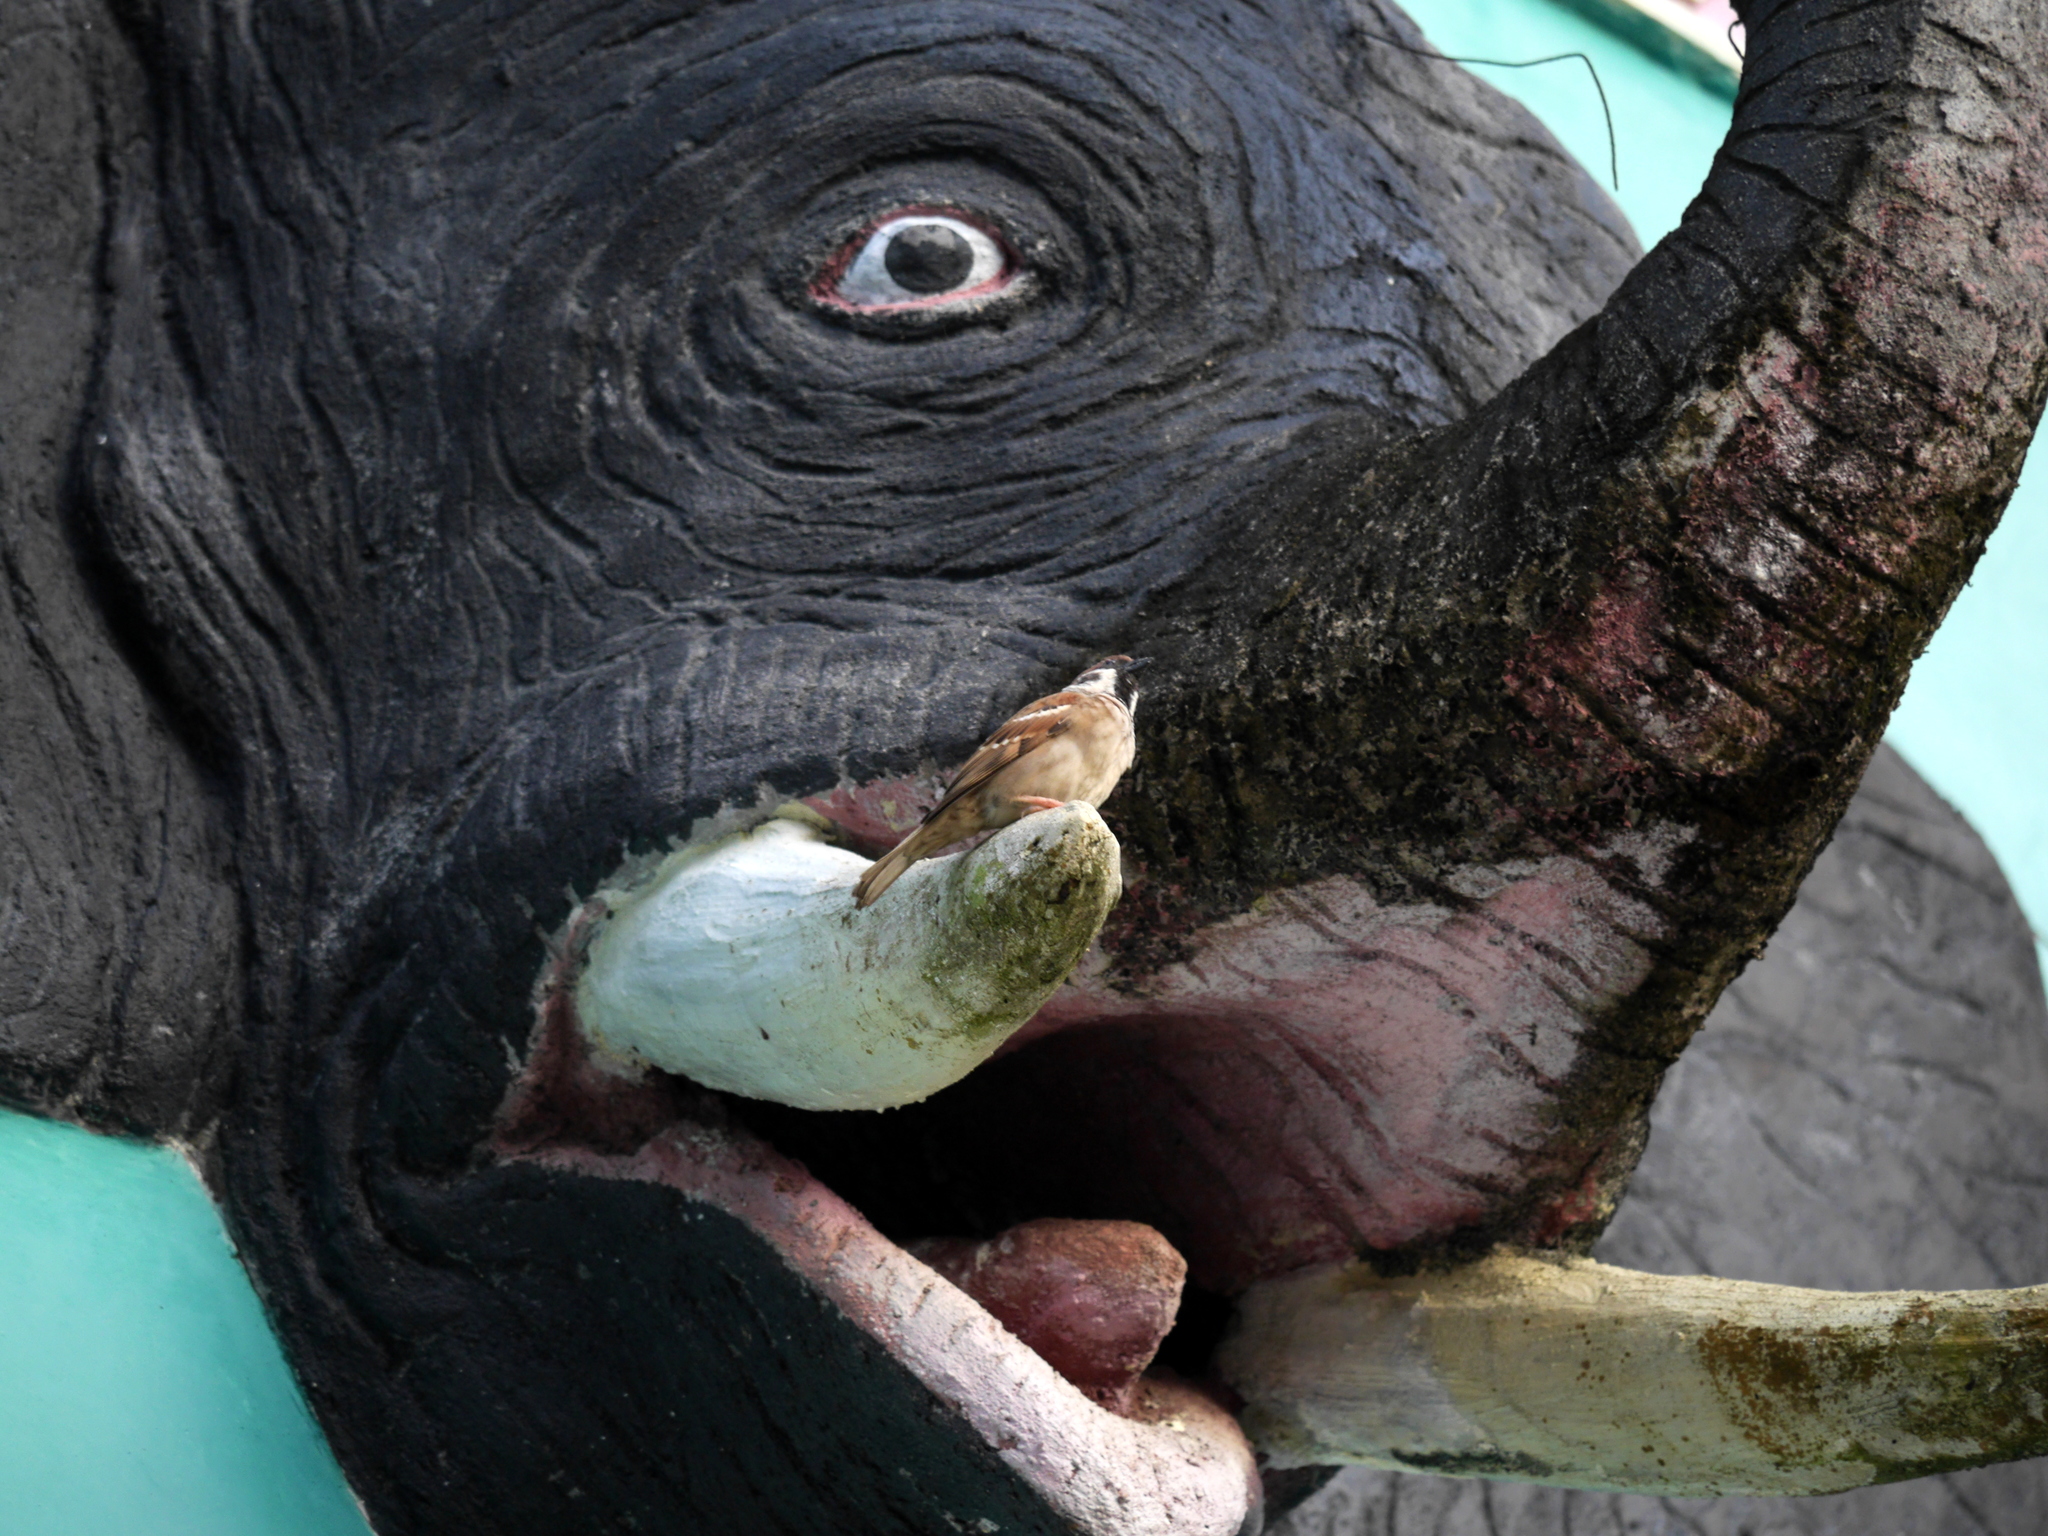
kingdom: Animalia
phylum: Chordata
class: Aves
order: Passeriformes
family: Passeridae
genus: Passer
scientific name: Passer montanus
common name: Eurasian tree sparrow
